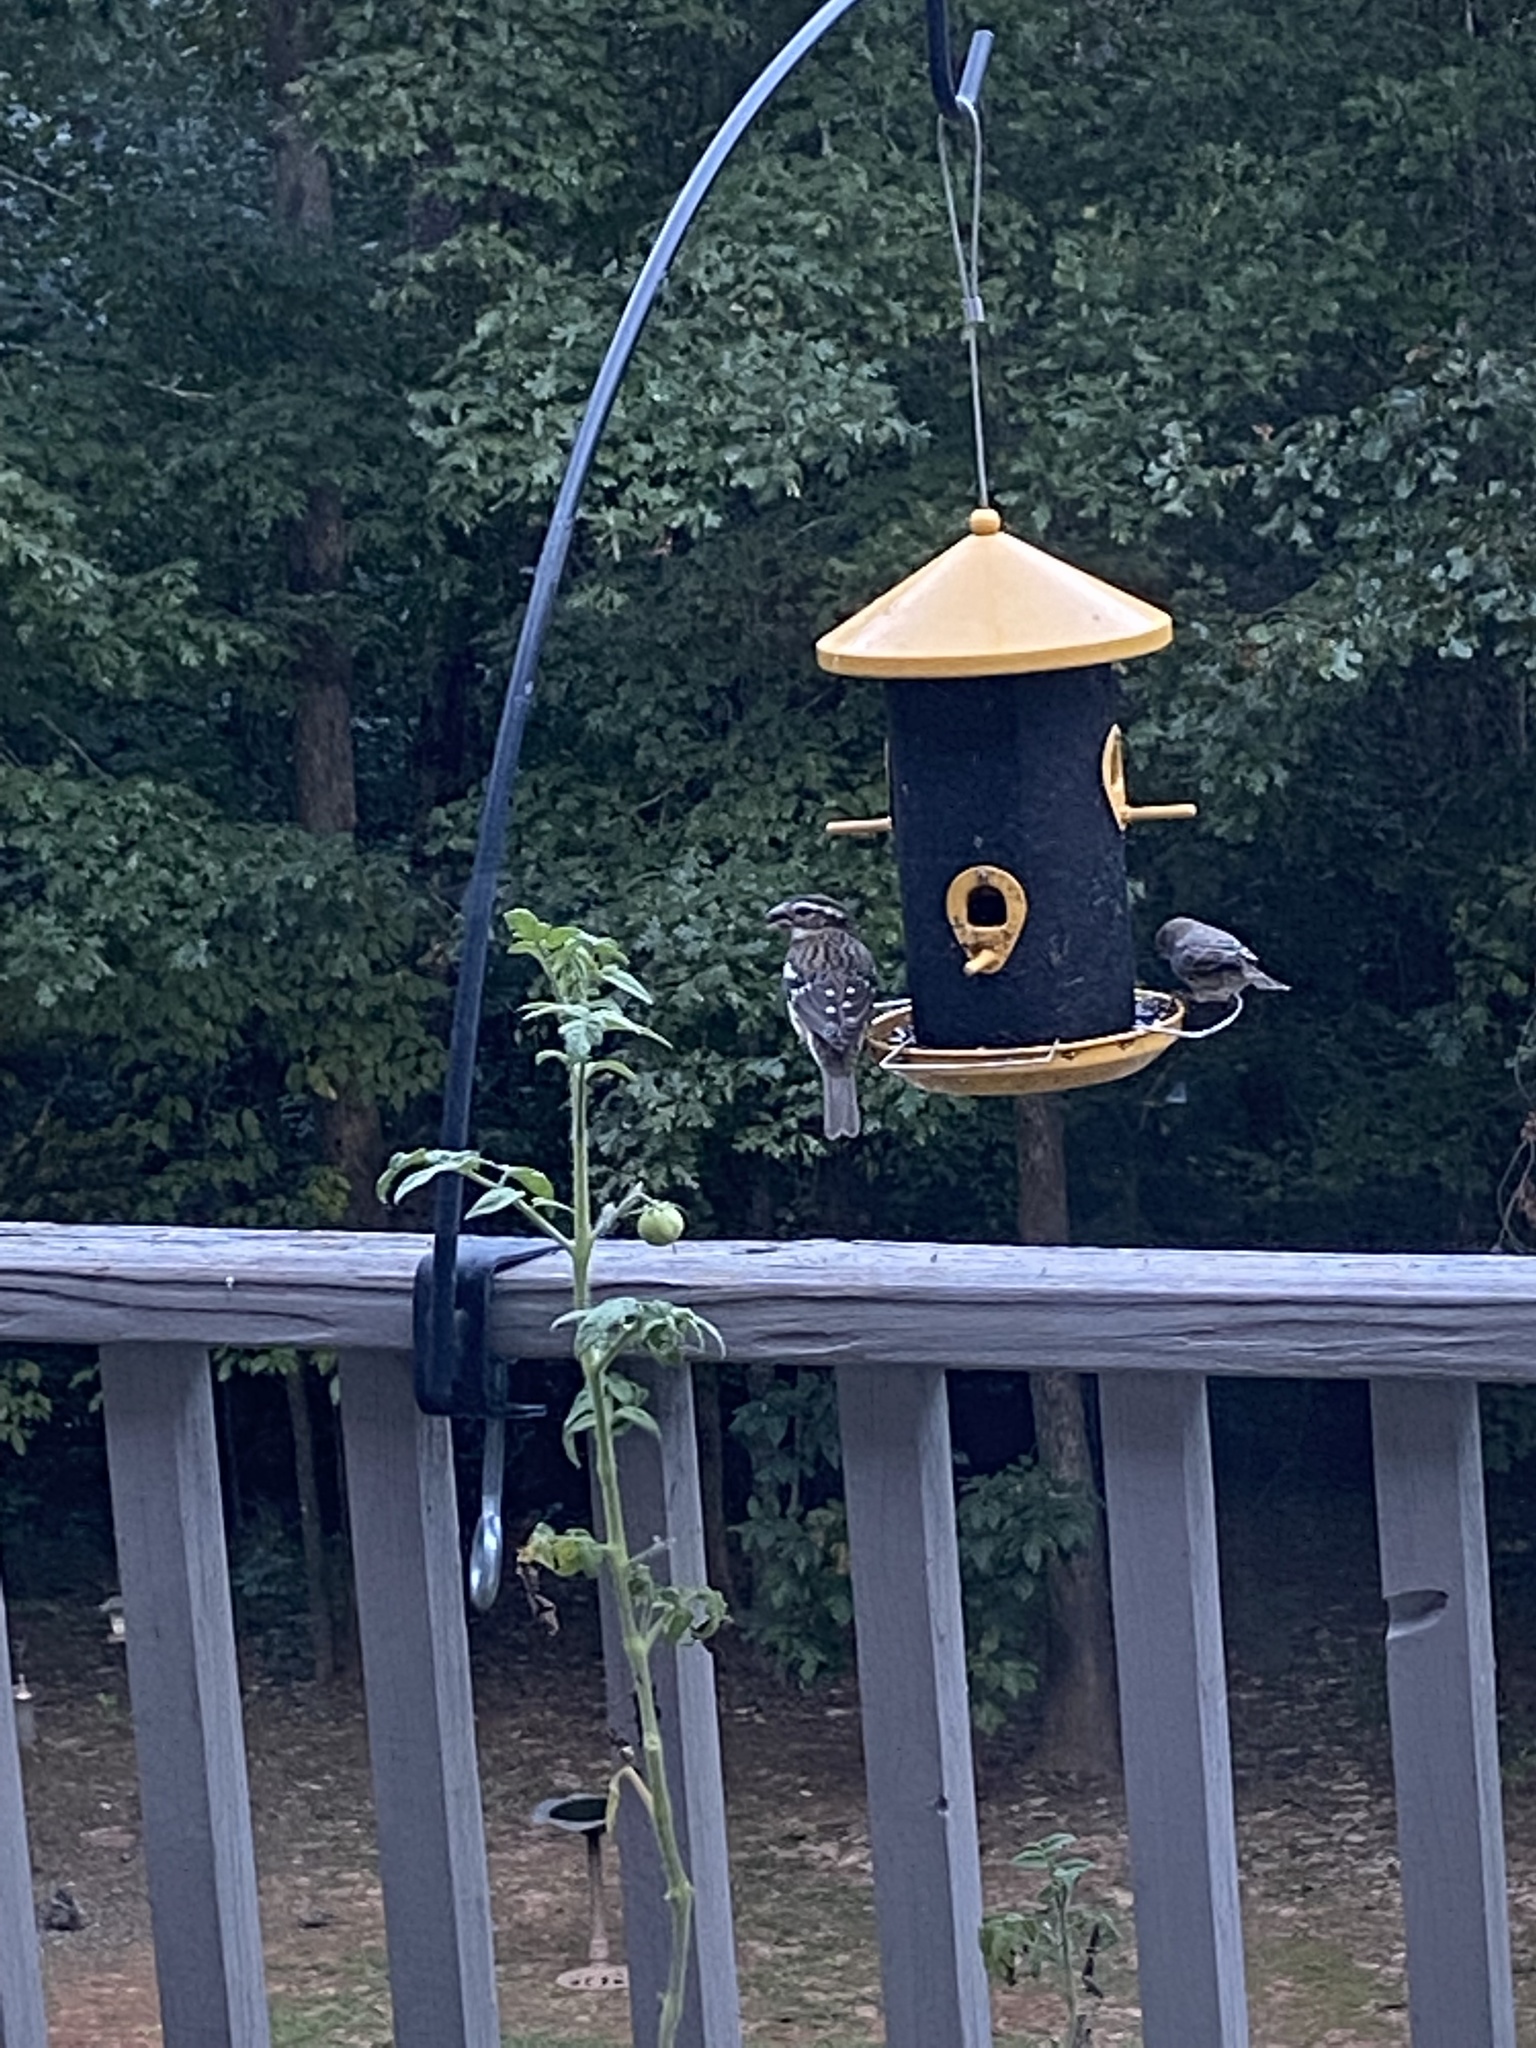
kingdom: Animalia
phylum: Chordata
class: Aves
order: Passeriformes
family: Cardinalidae
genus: Pheucticus
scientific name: Pheucticus ludovicianus
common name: Rose-breasted grosbeak
